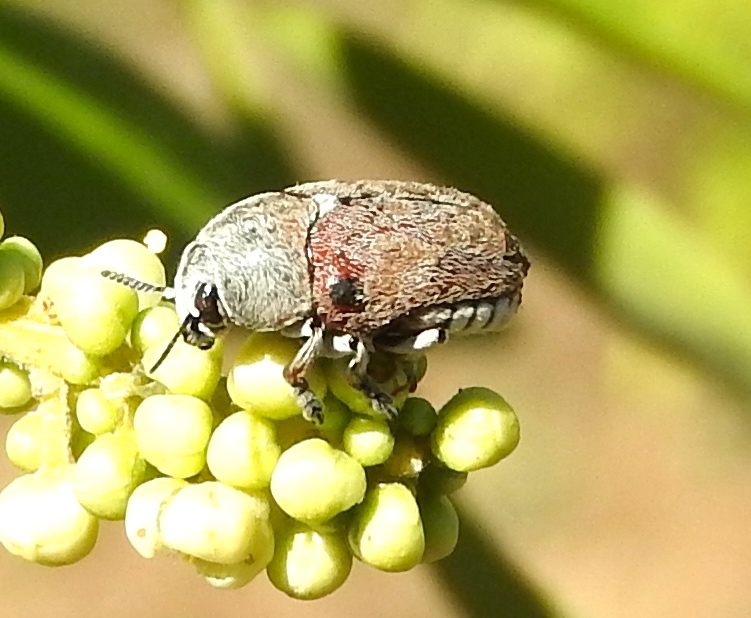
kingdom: Animalia
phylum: Arthropoda
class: Insecta
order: Coleoptera
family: Chrysomelidae
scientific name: Chrysomelidae
